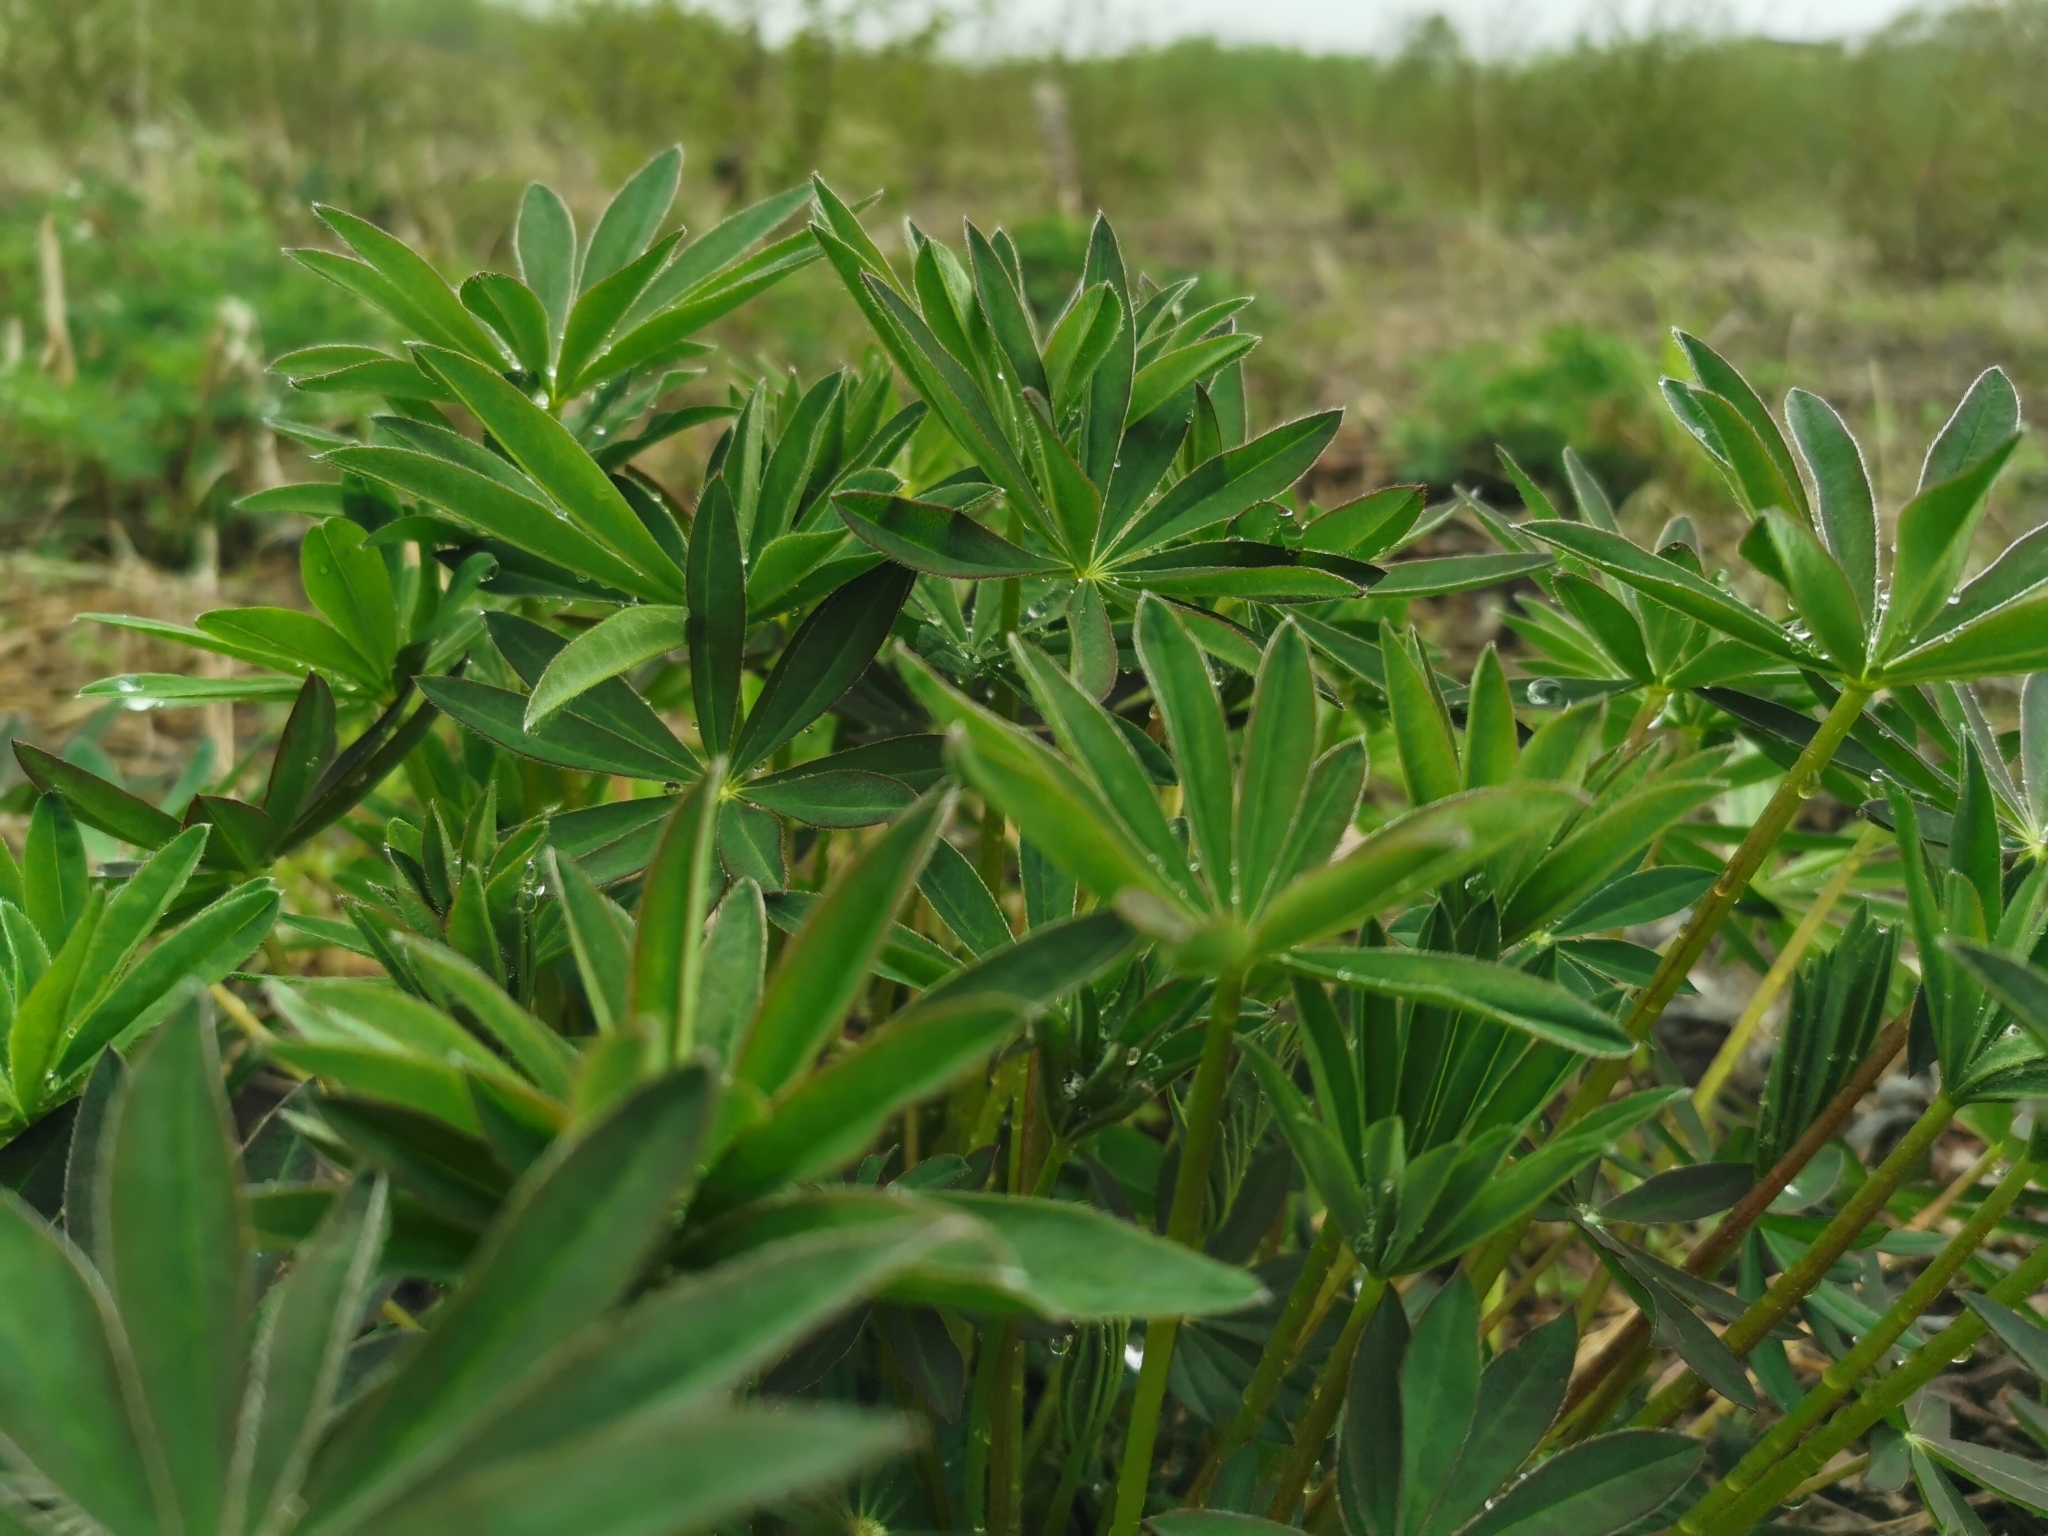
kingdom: Plantae
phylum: Tracheophyta
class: Magnoliopsida
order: Fabales
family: Fabaceae
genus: Lupinus
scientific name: Lupinus polyphyllus
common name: Garden lupin
